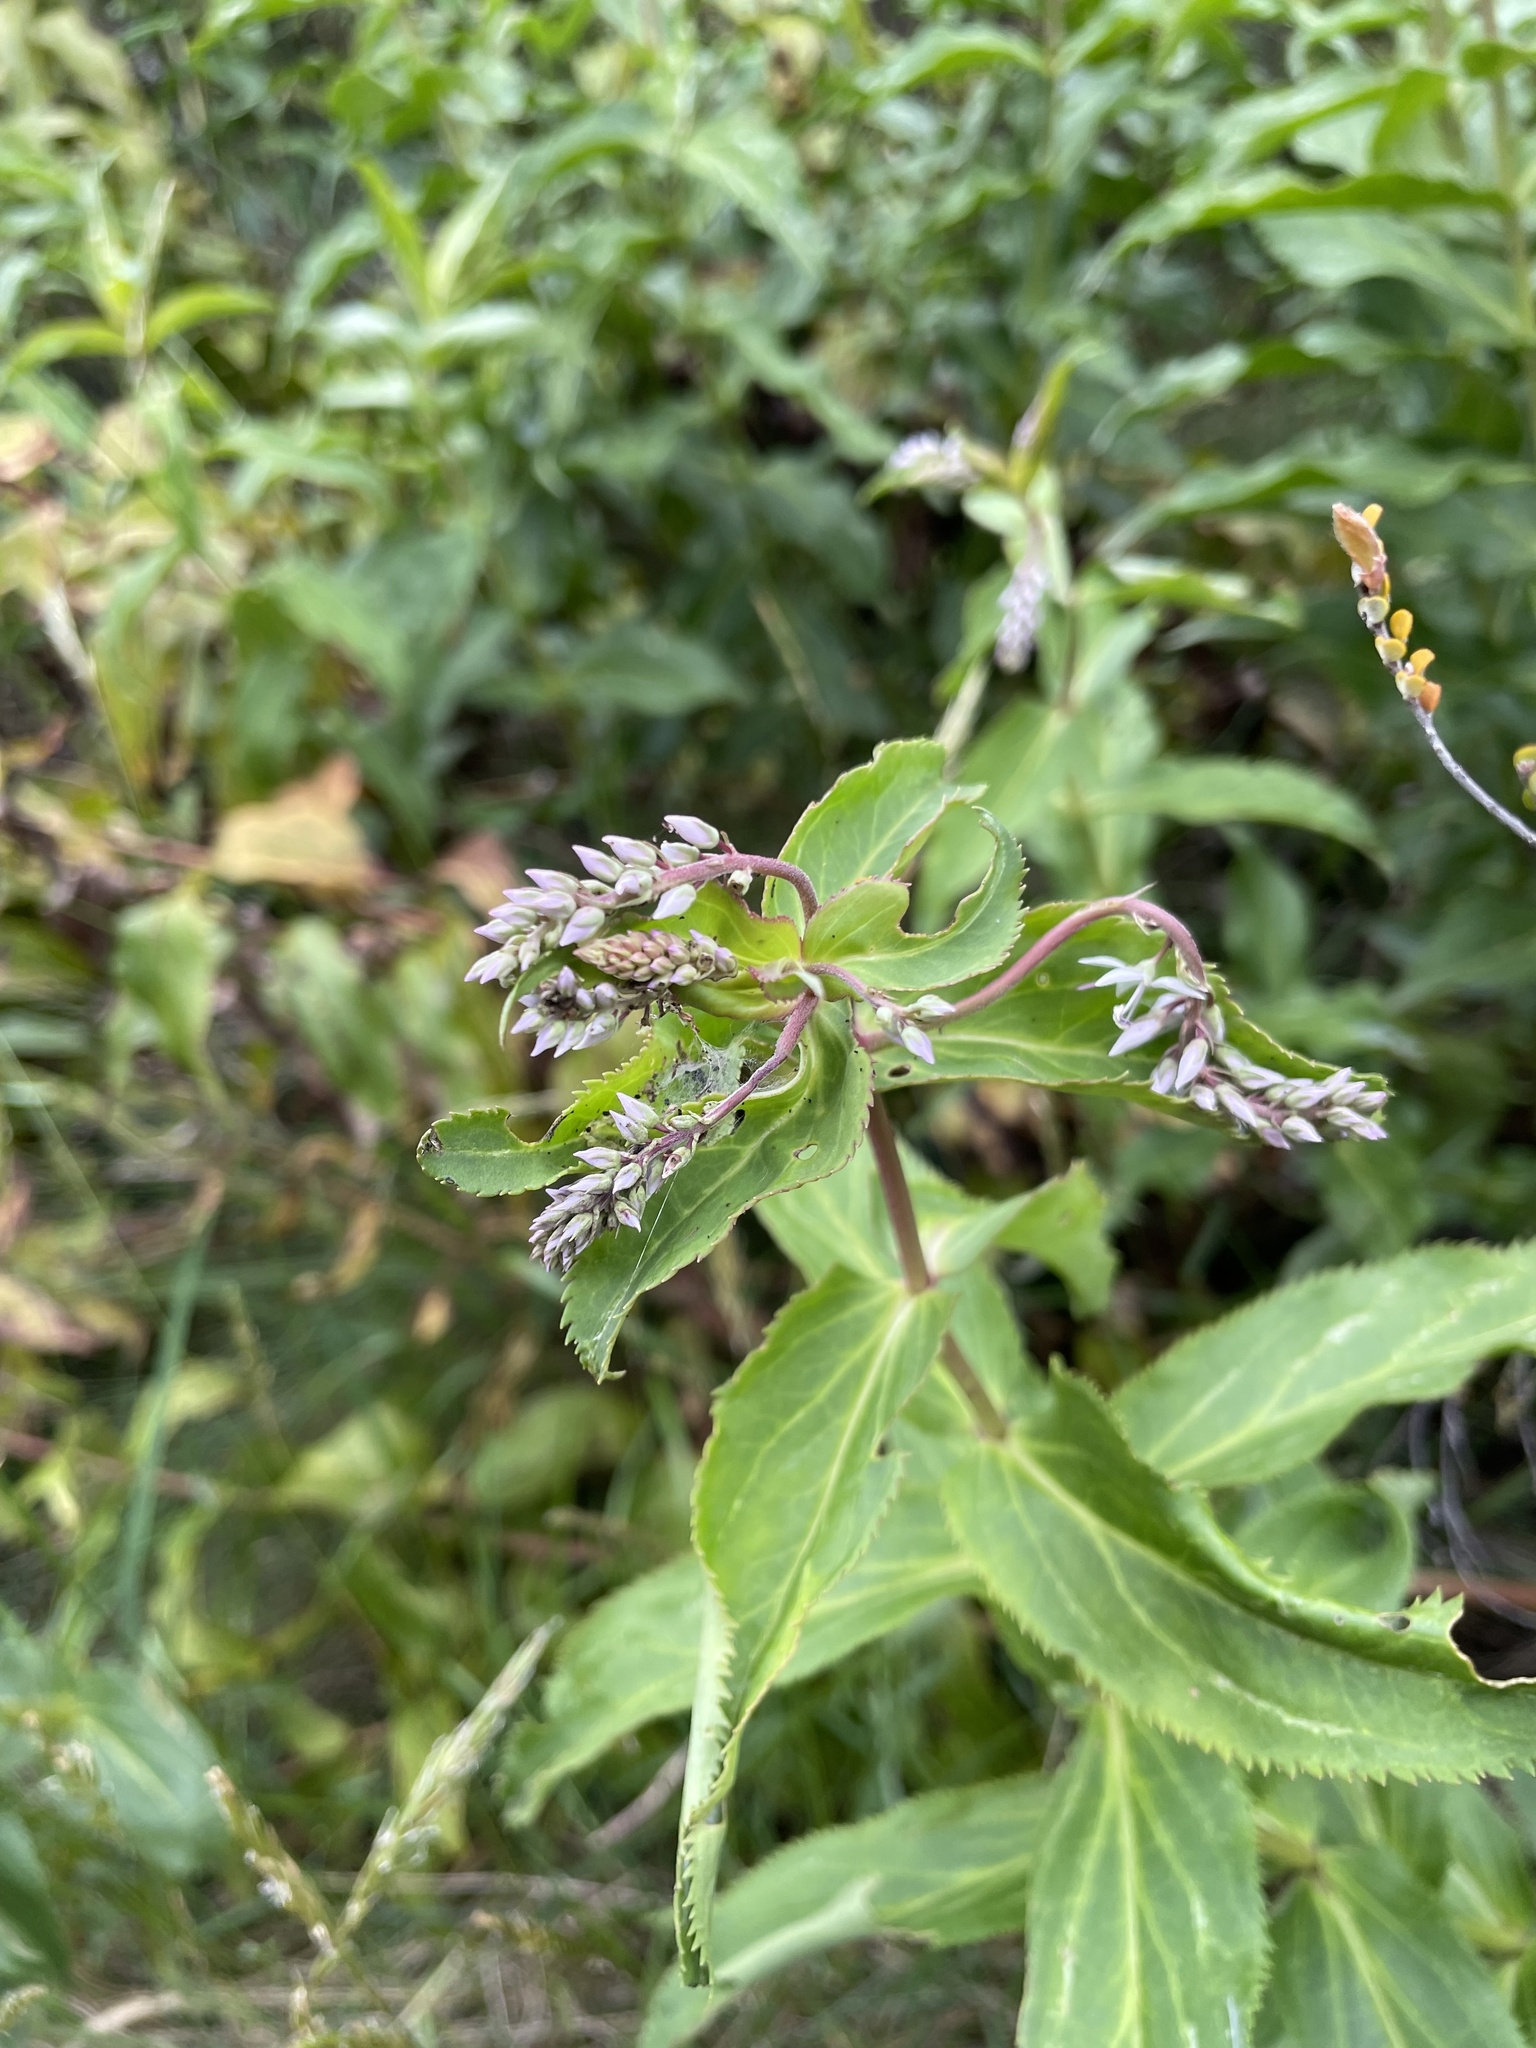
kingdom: Plantae
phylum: Tracheophyta
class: Magnoliopsida
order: Lamiales
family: Plantaginaceae
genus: Veronica
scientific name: Veronica derwentiana
